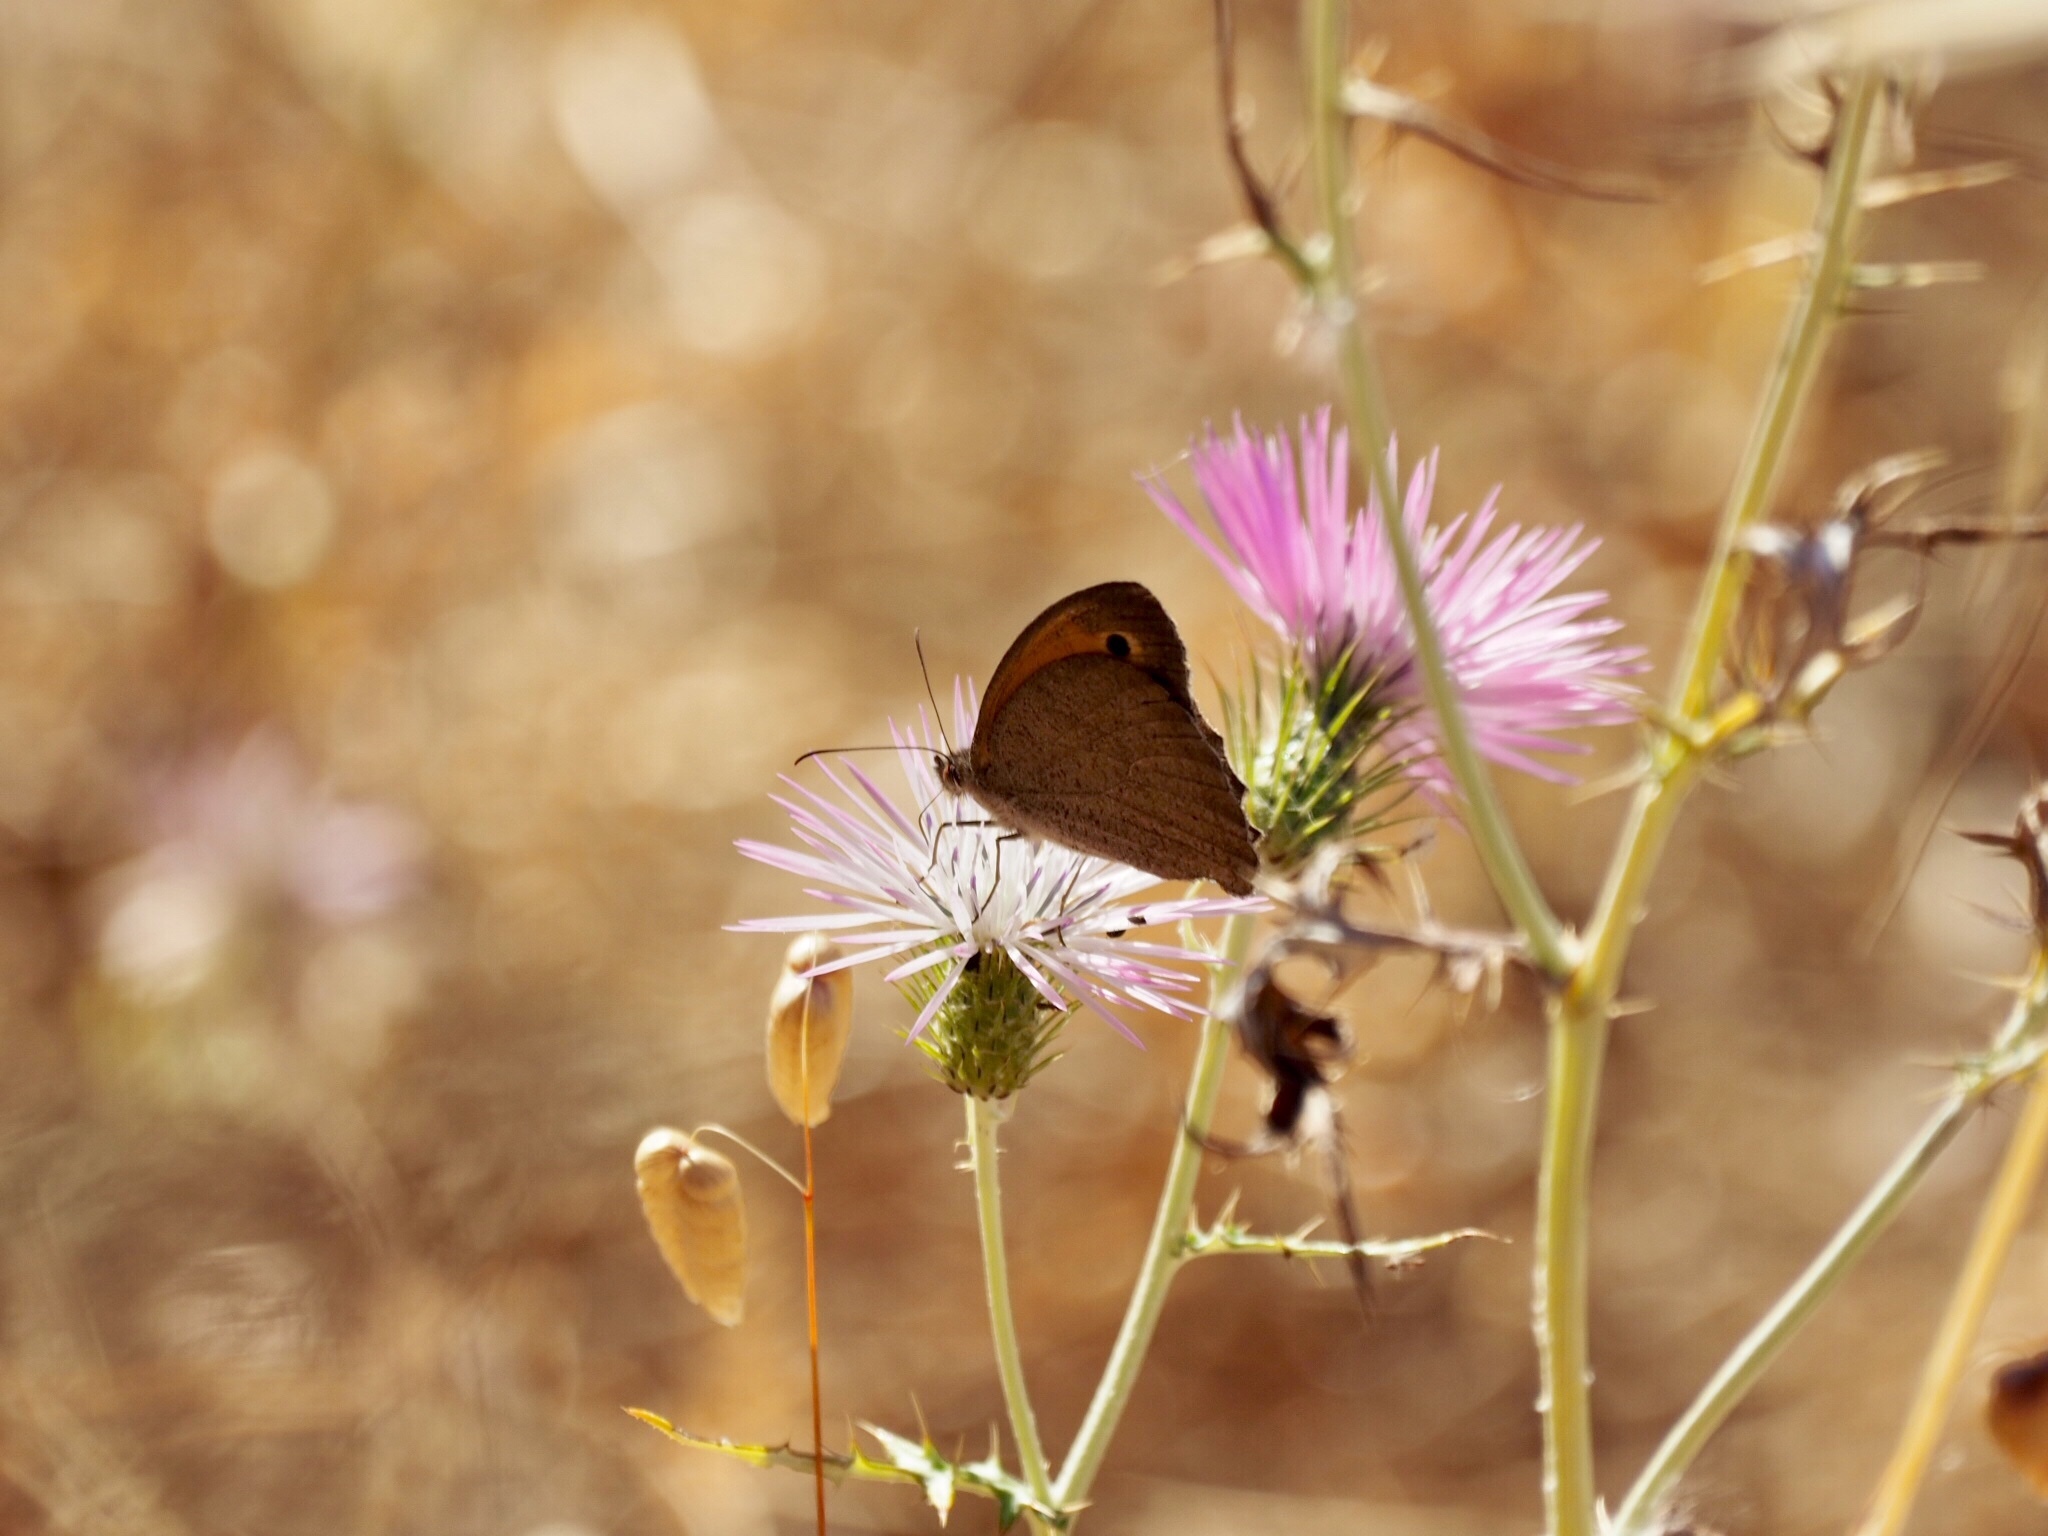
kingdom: Animalia
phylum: Arthropoda
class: Insecta
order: Lepidoptera
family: Nymphalidae
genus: Maniola
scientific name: Maniola jurtina
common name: Meadow brown
